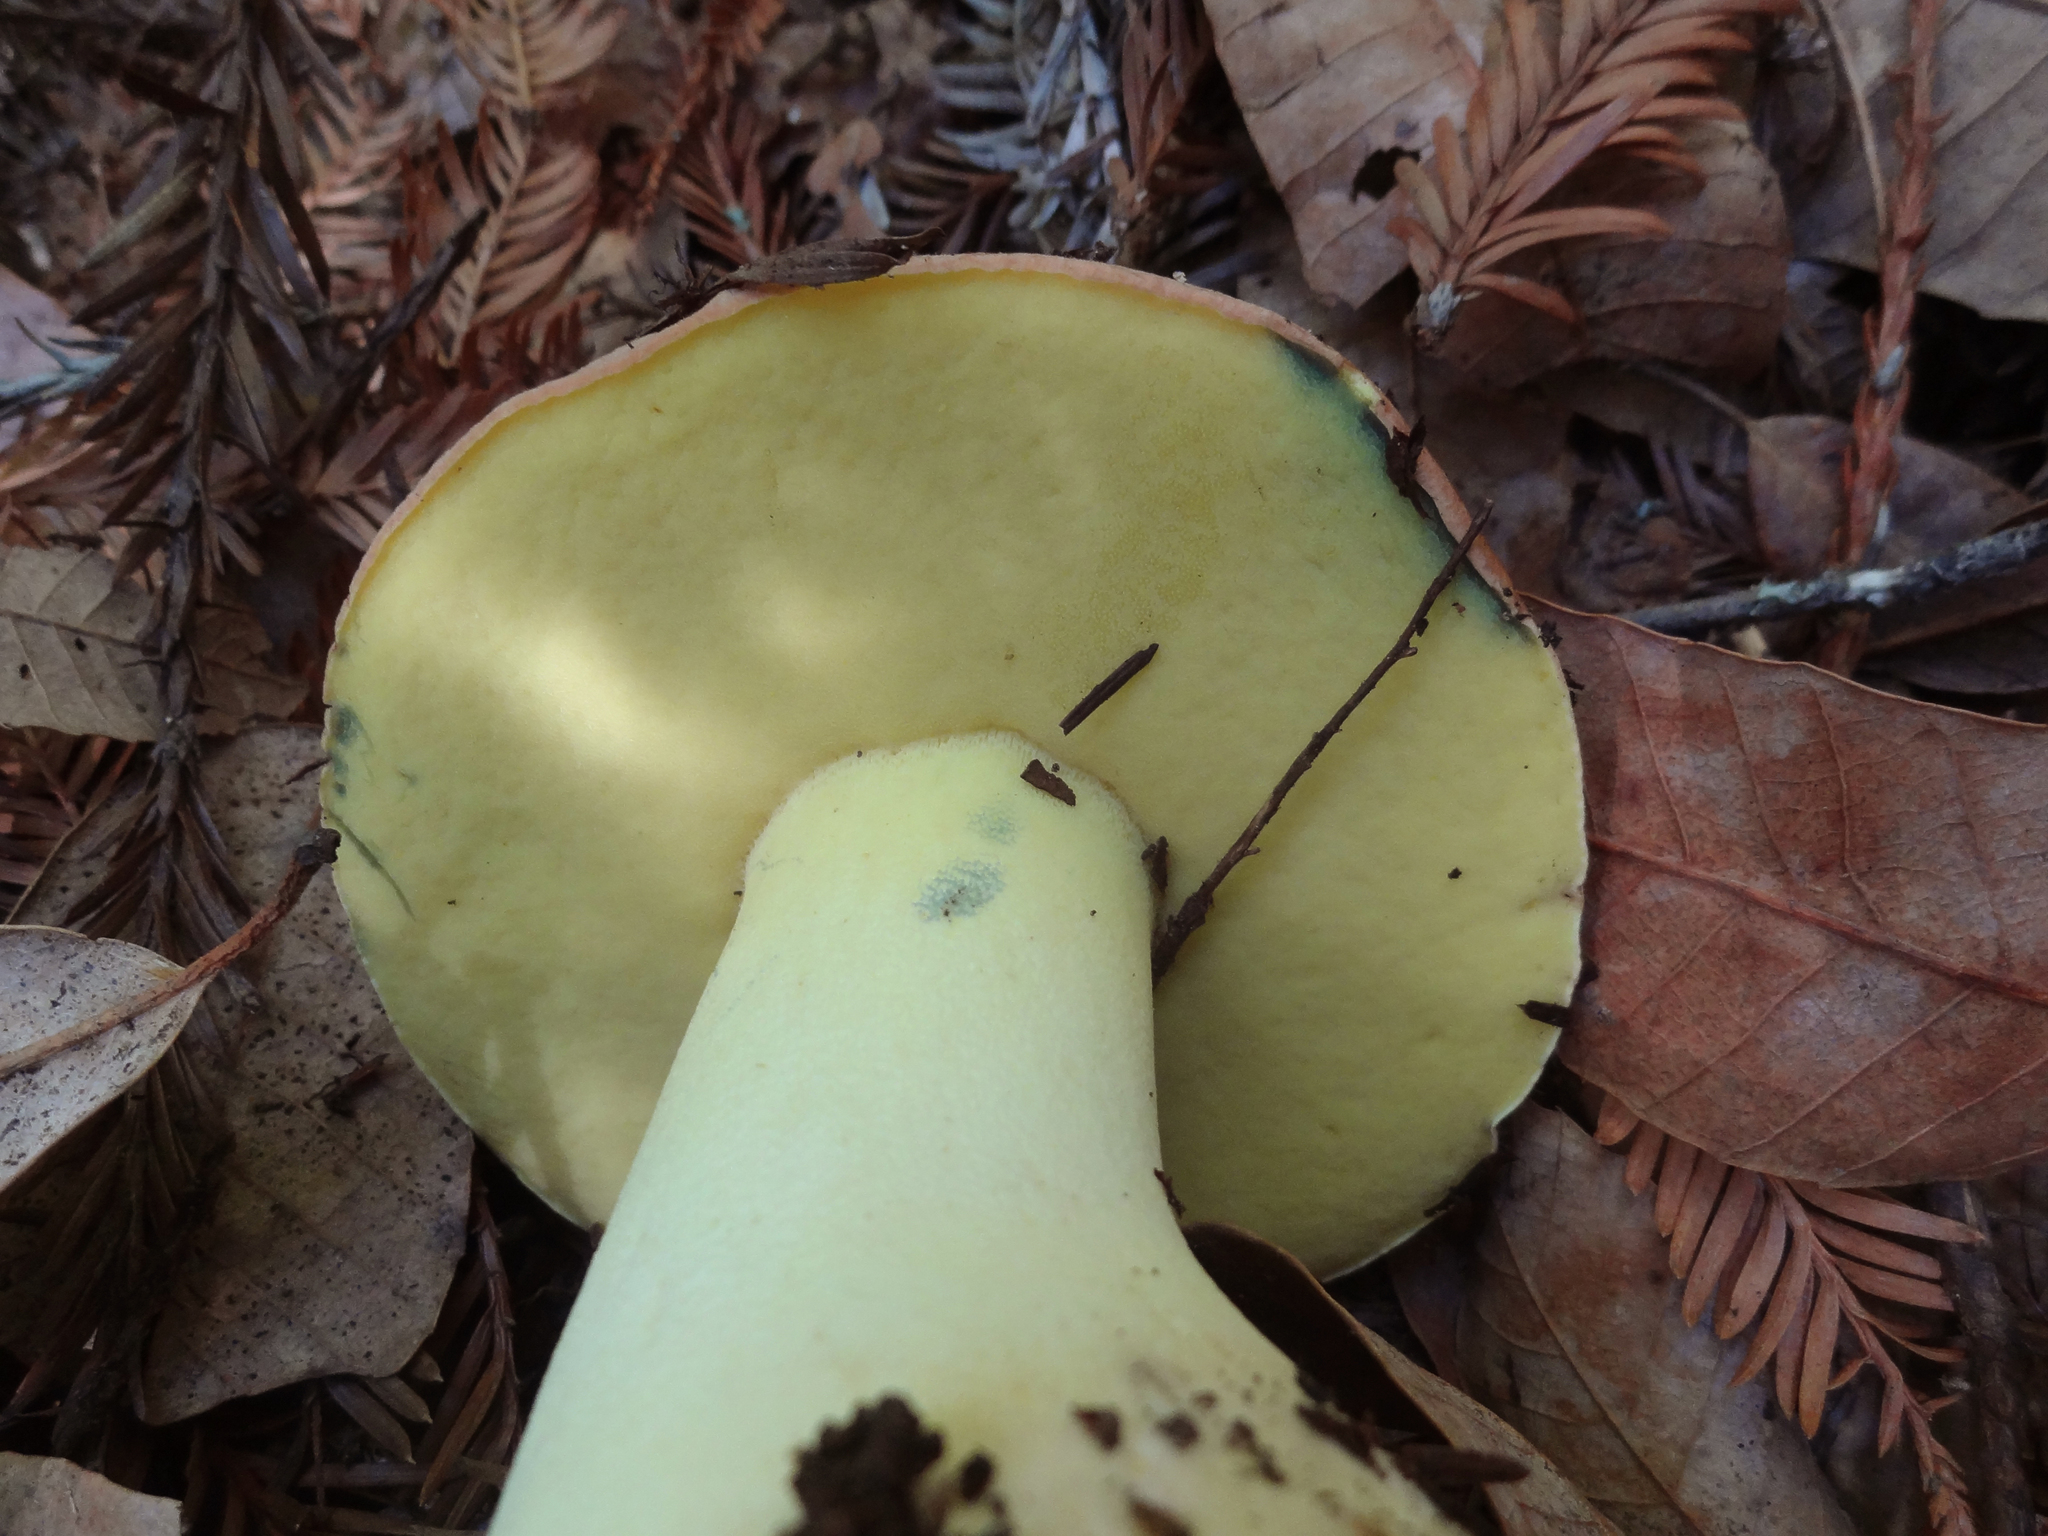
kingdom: Fungi
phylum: Basidiomycota
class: Agaricomycetes
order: Boletales
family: Boletaceae
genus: Butyriboletus
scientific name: Butyriboletus persolidus
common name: Brown butter bolete
